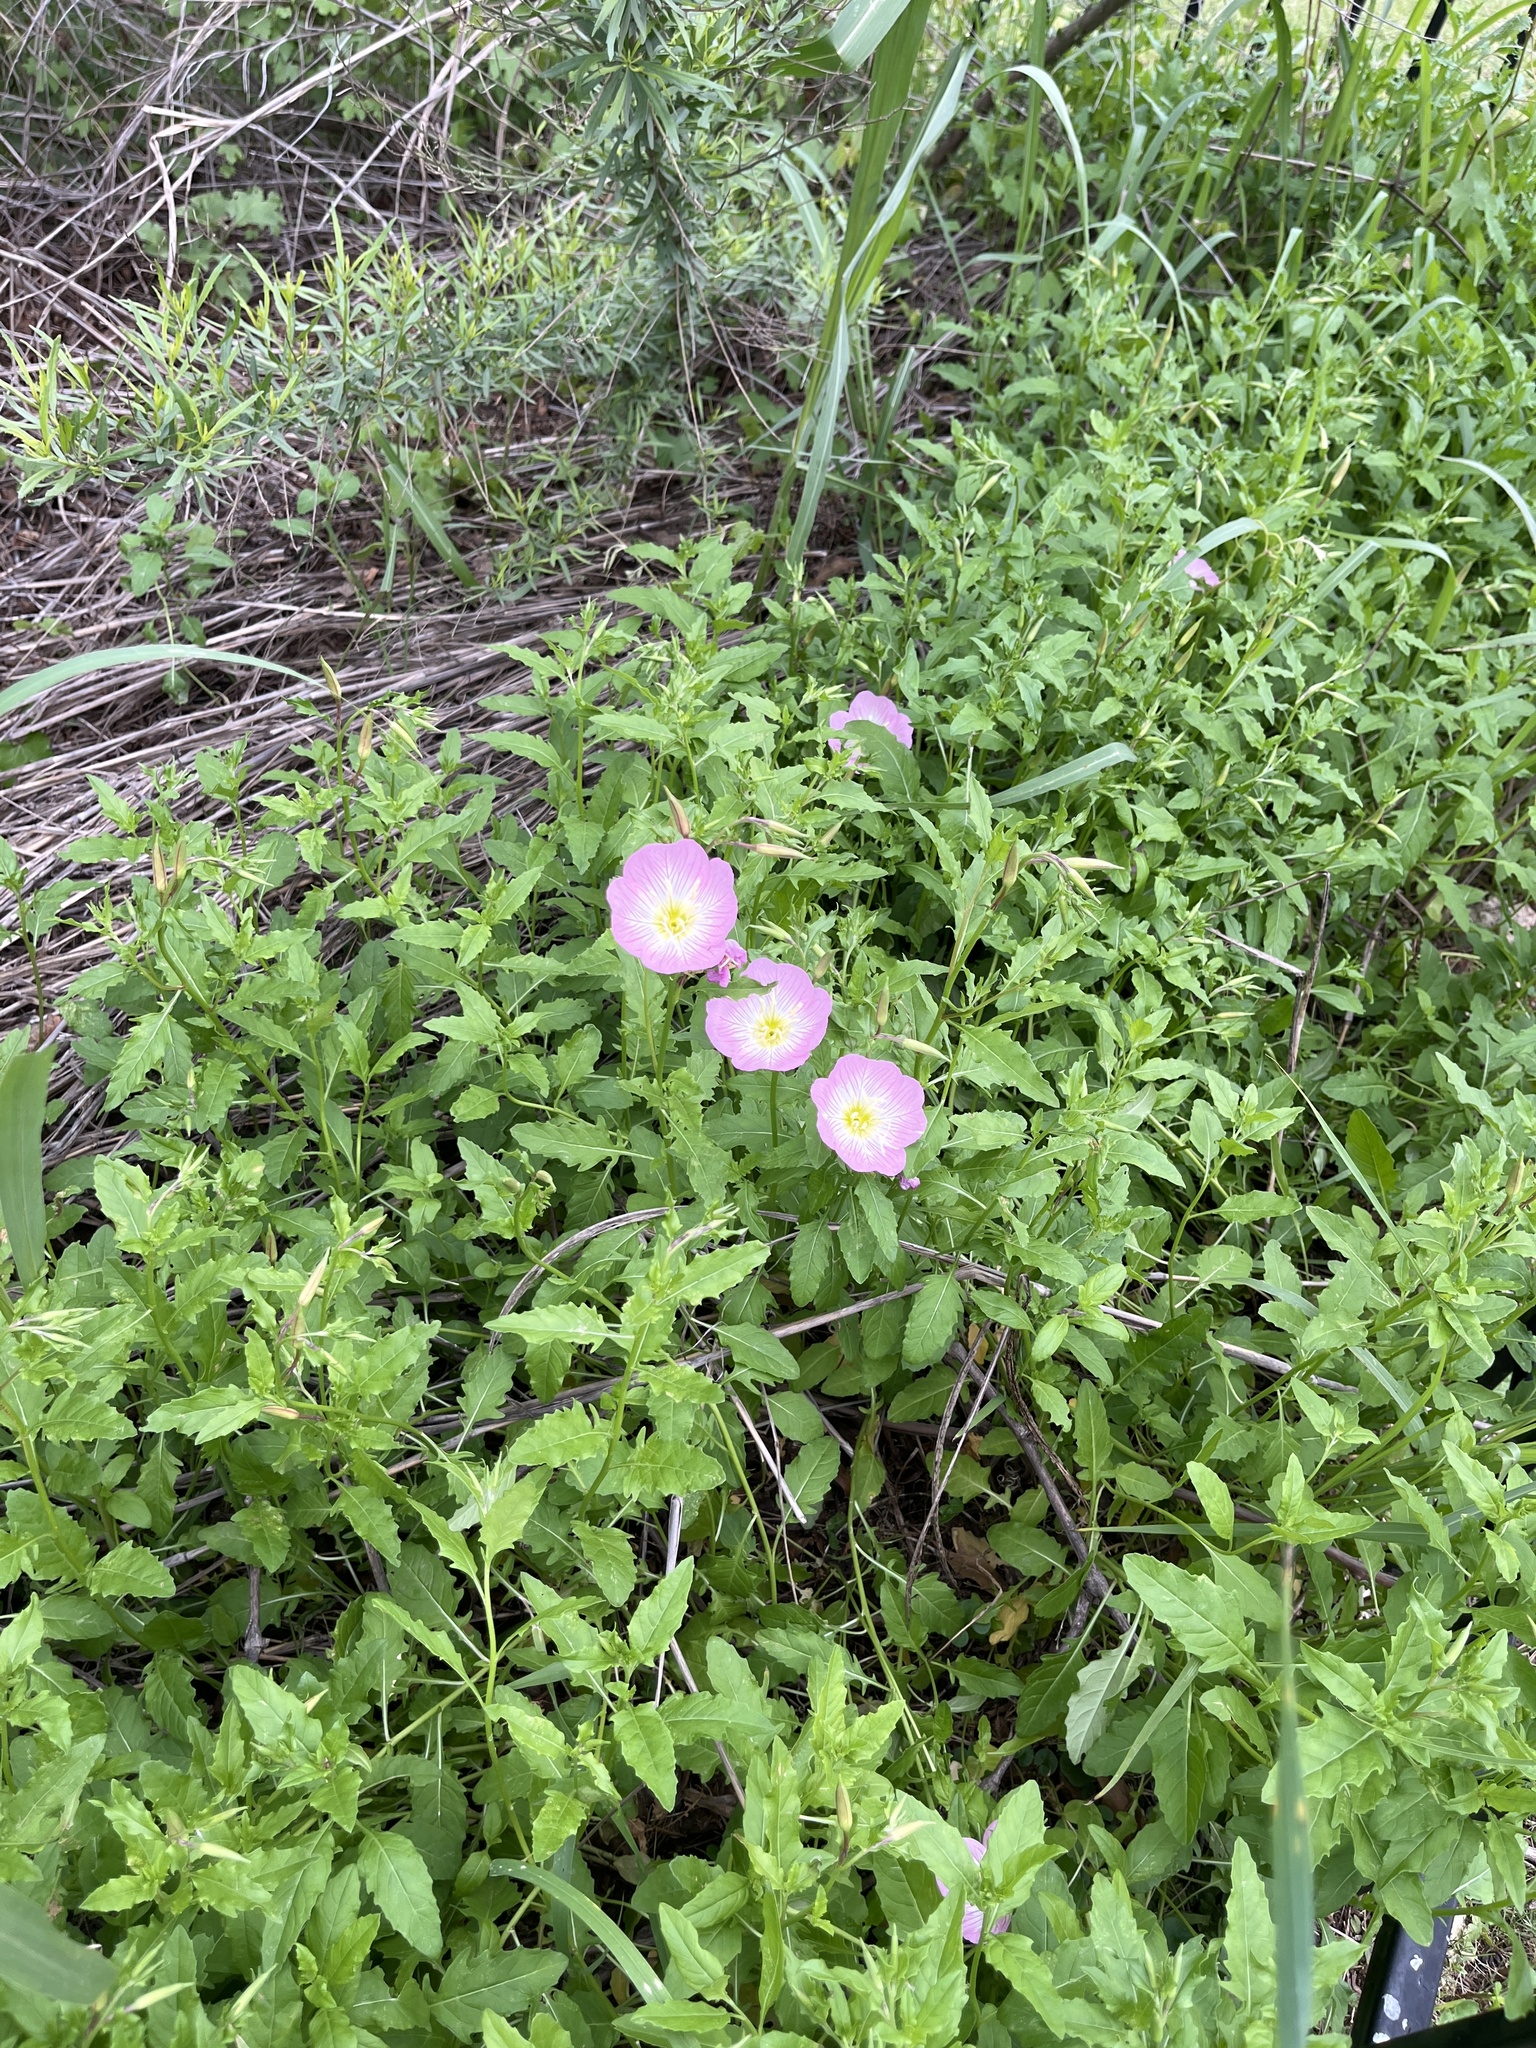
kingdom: Plantae
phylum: Tracheophyta
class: Magnoliopsida
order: Myrtales
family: Onagraceae
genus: Oenothera
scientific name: Oenothera speciosa
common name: White evening-primrose
